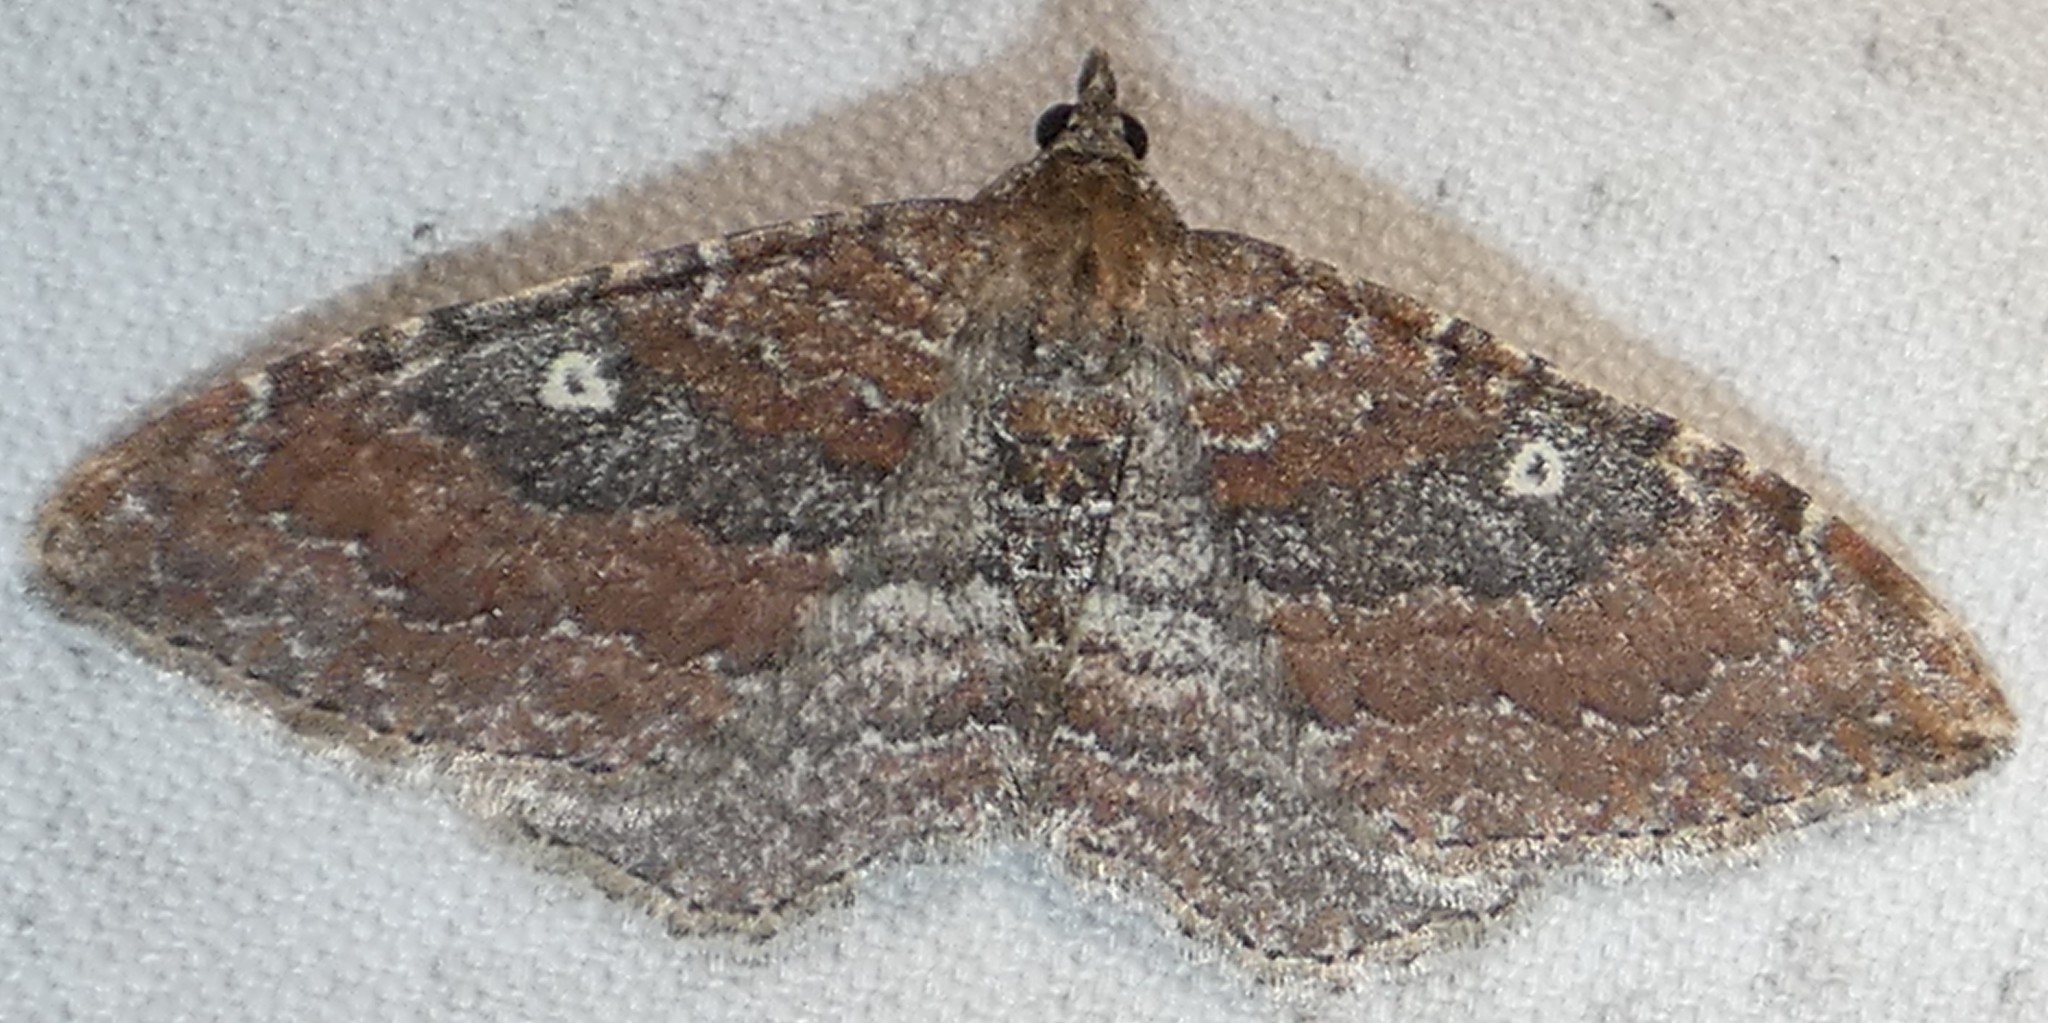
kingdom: Animalia
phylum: Arthropoda
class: Insecta
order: Lepidoptera
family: Geometridae
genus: Orthonama
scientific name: Orthonama obstipata
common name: The gem
